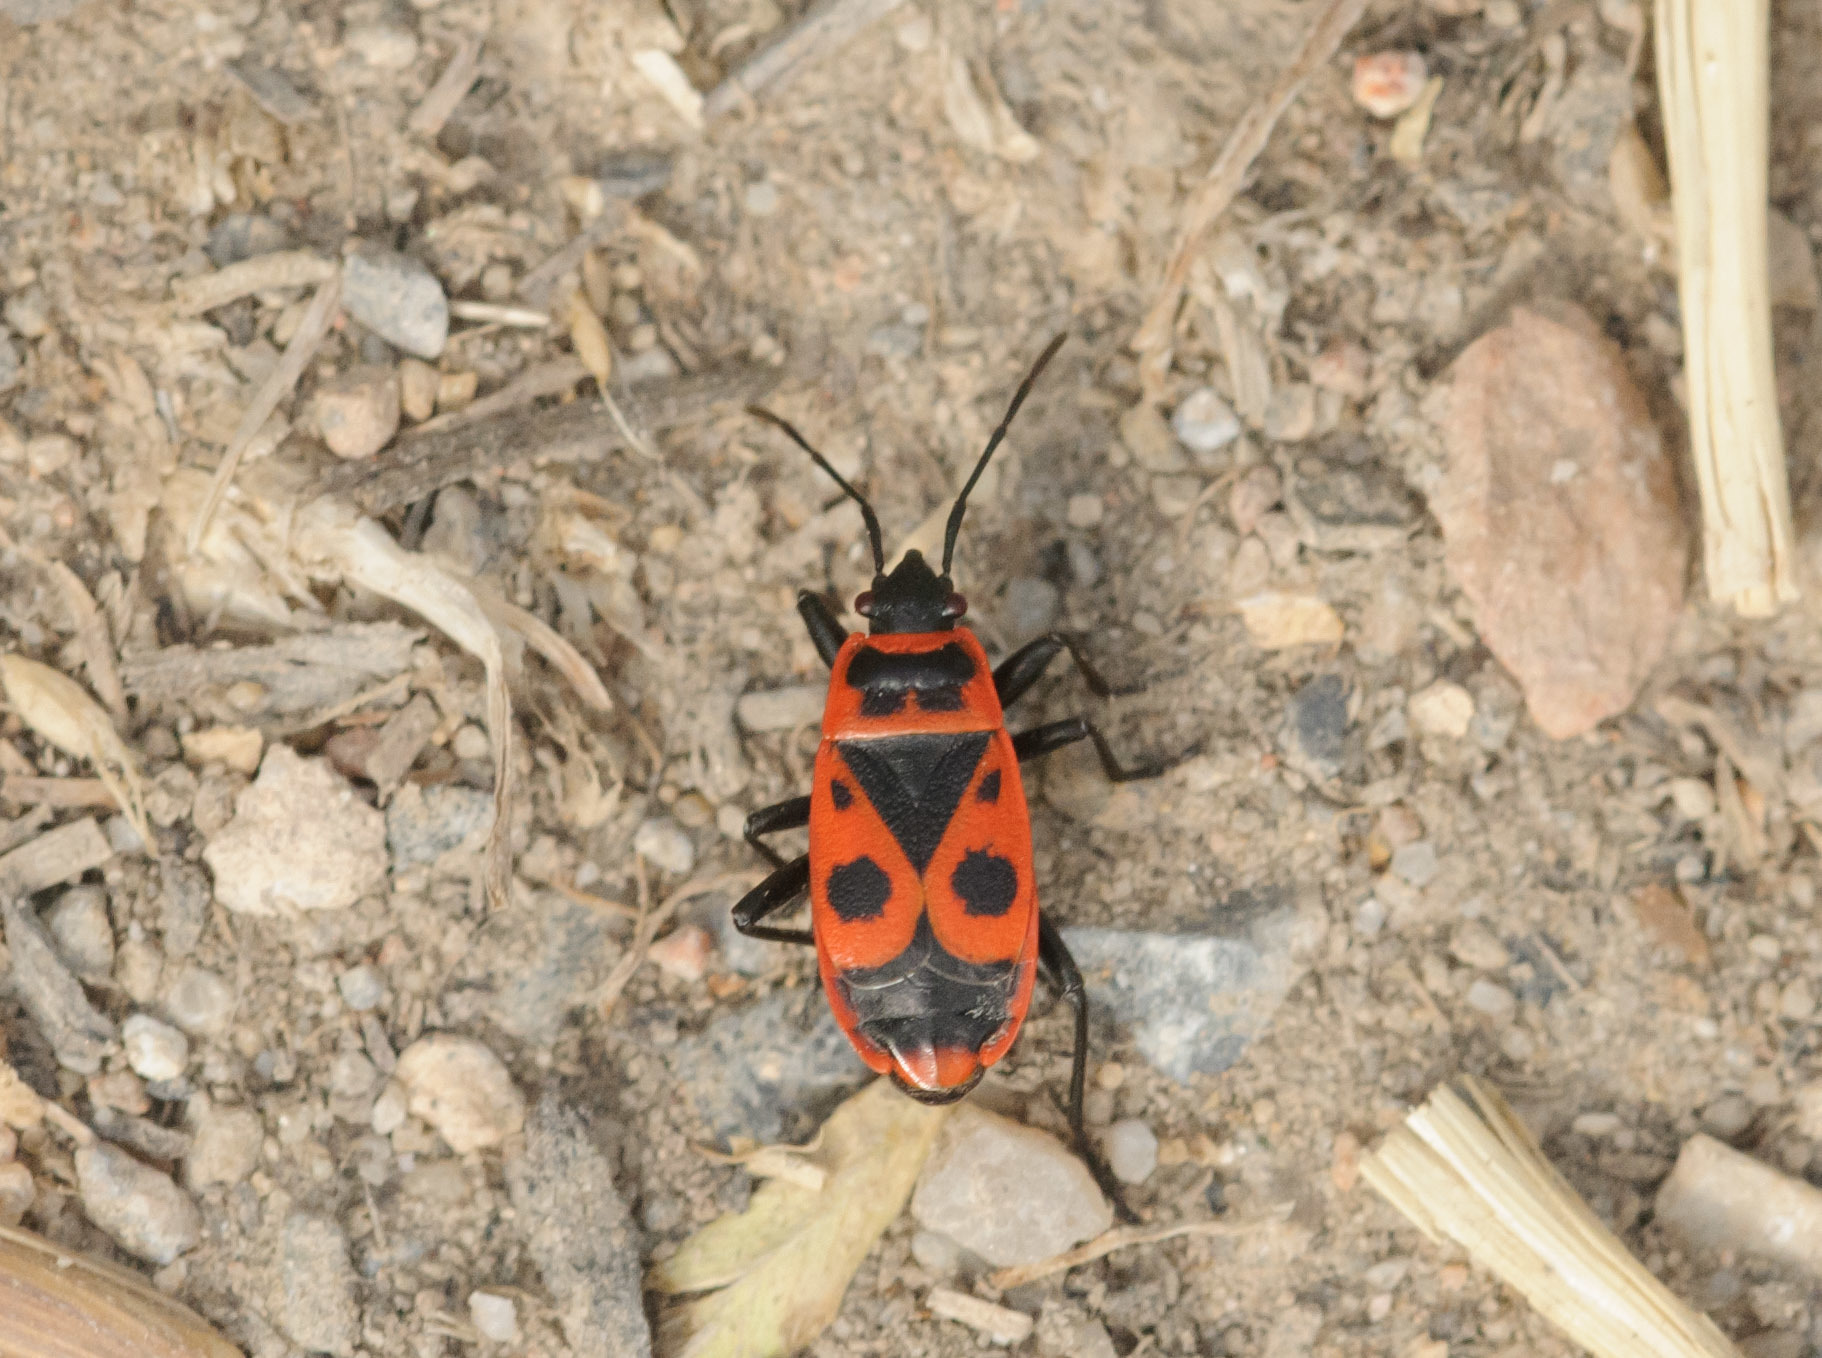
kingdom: Animalia
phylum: Arthropoda
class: Insecta
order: Hemiptera
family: Pyrrhocoridae
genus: Pyrrhocoris
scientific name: Pyrrhocoris apterus
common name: Firebug
